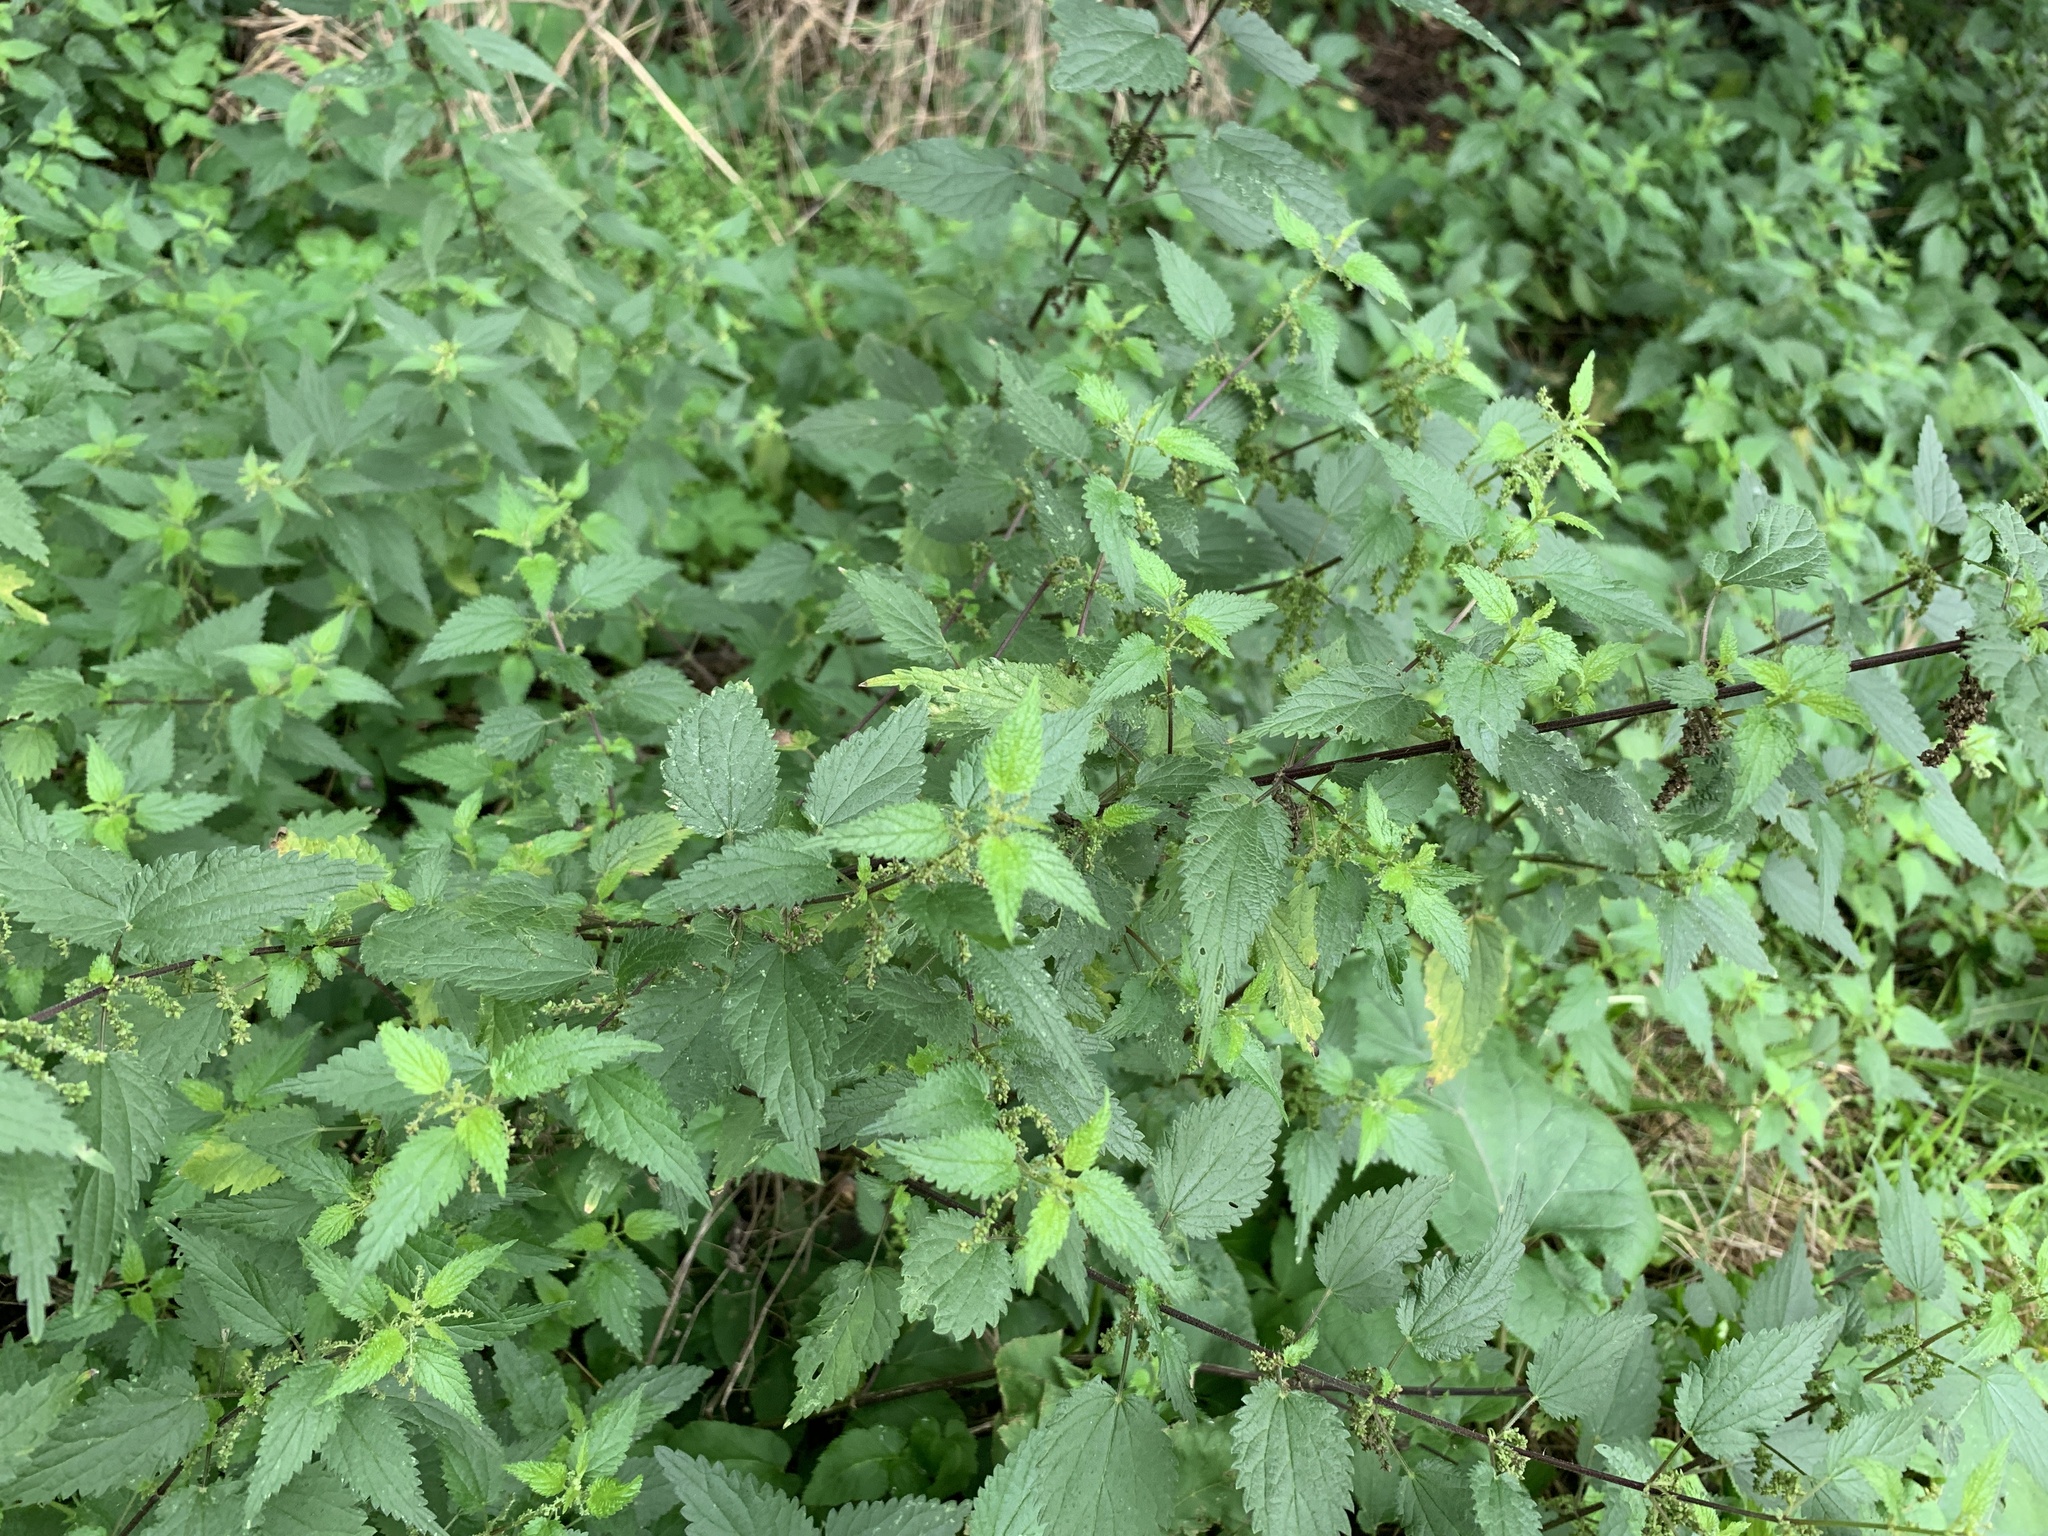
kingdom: Plantae
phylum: Tracheophyta
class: Magnoliopsida
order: Rosales
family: Urticaceae
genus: Urtica
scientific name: Urtica dioica
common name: Common nettle
